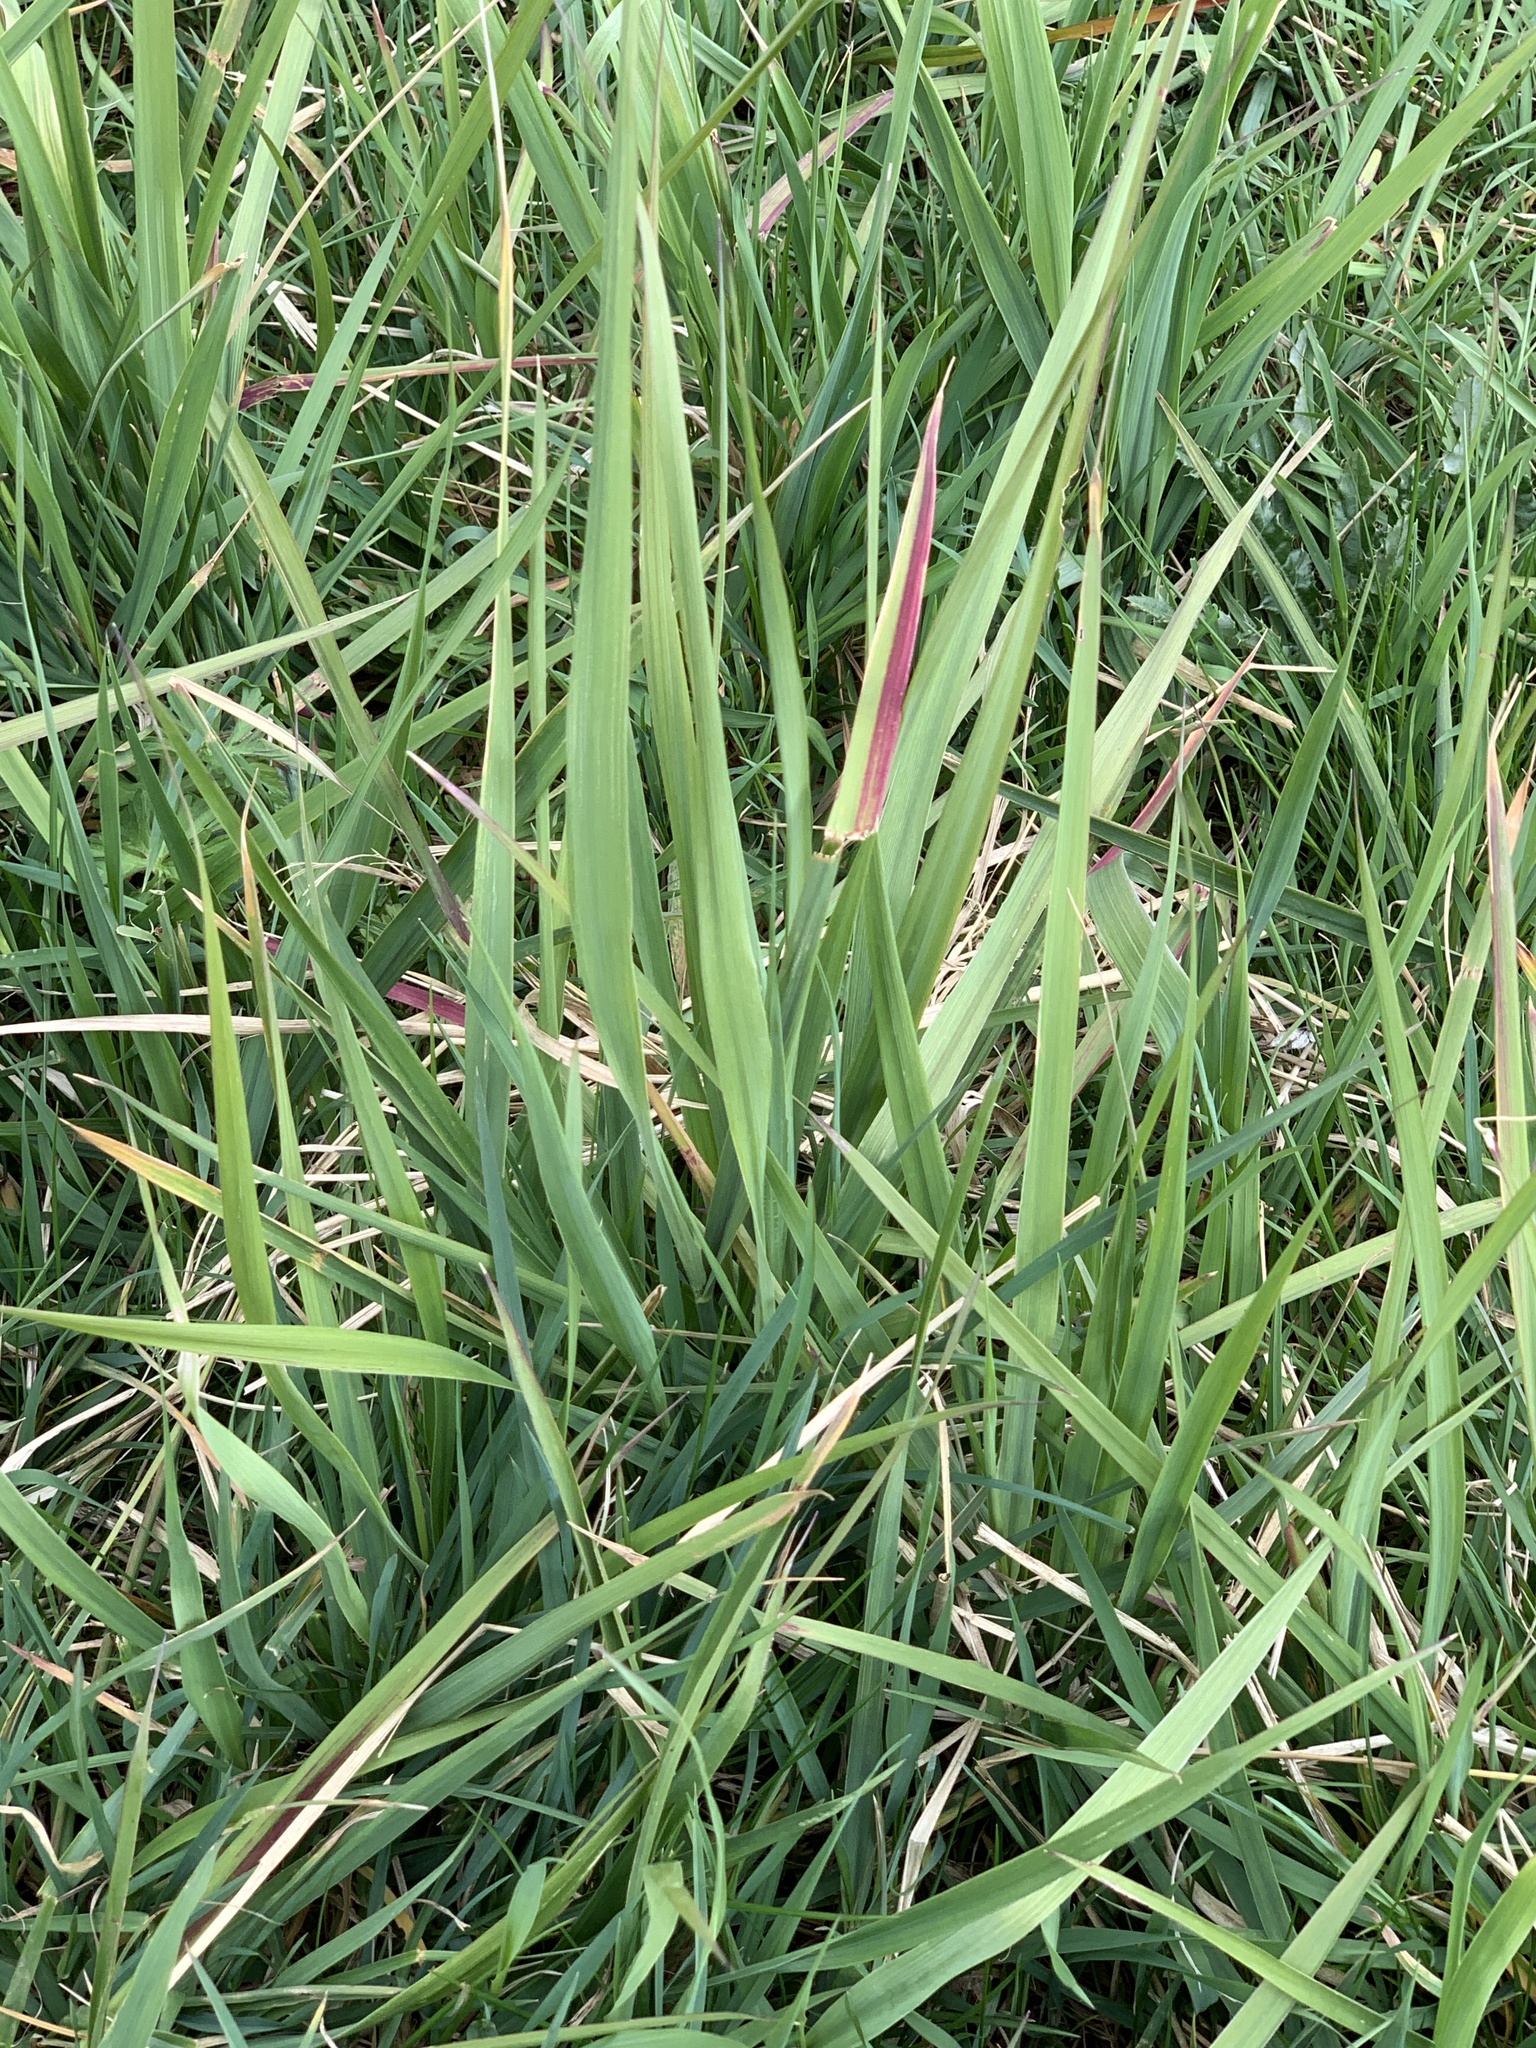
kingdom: Plantae
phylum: Tracheophyta
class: Liliopsida
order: Poales
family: Poaceae
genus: Phalaris
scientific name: Phalaris arundinacea
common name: Reed canary-grass
